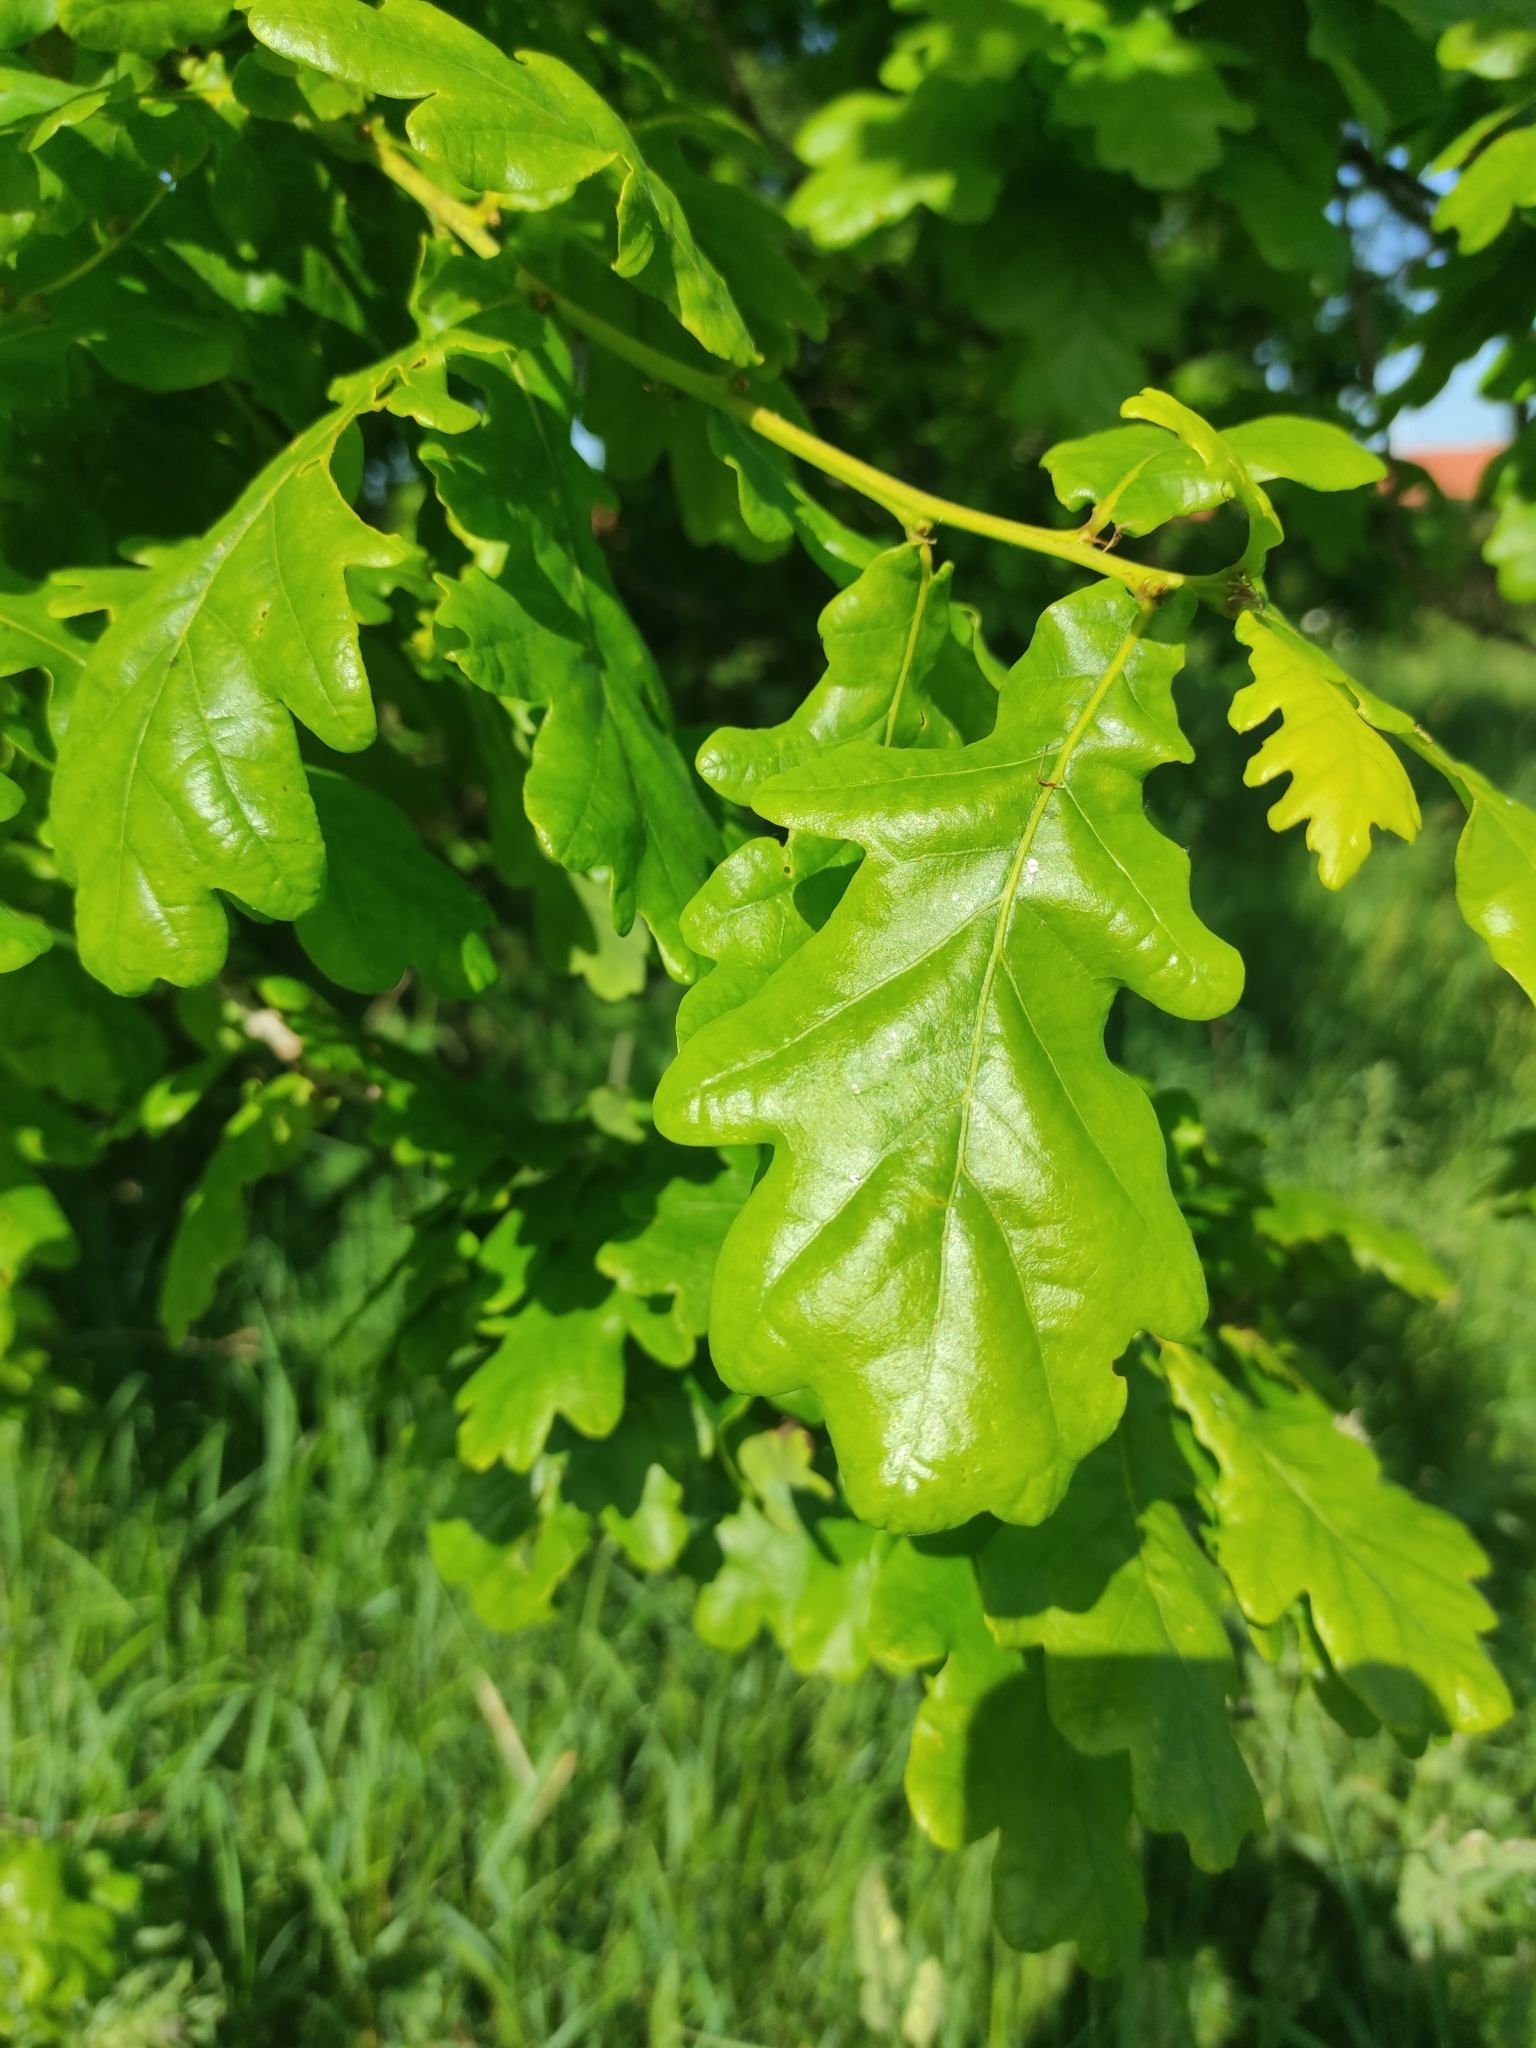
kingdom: Plantae
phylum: Tracheophyta
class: Magnoliopsida
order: Fagales
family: Fagaceae
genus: Quercus
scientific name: Quercus robur
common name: Pedunculate oak
